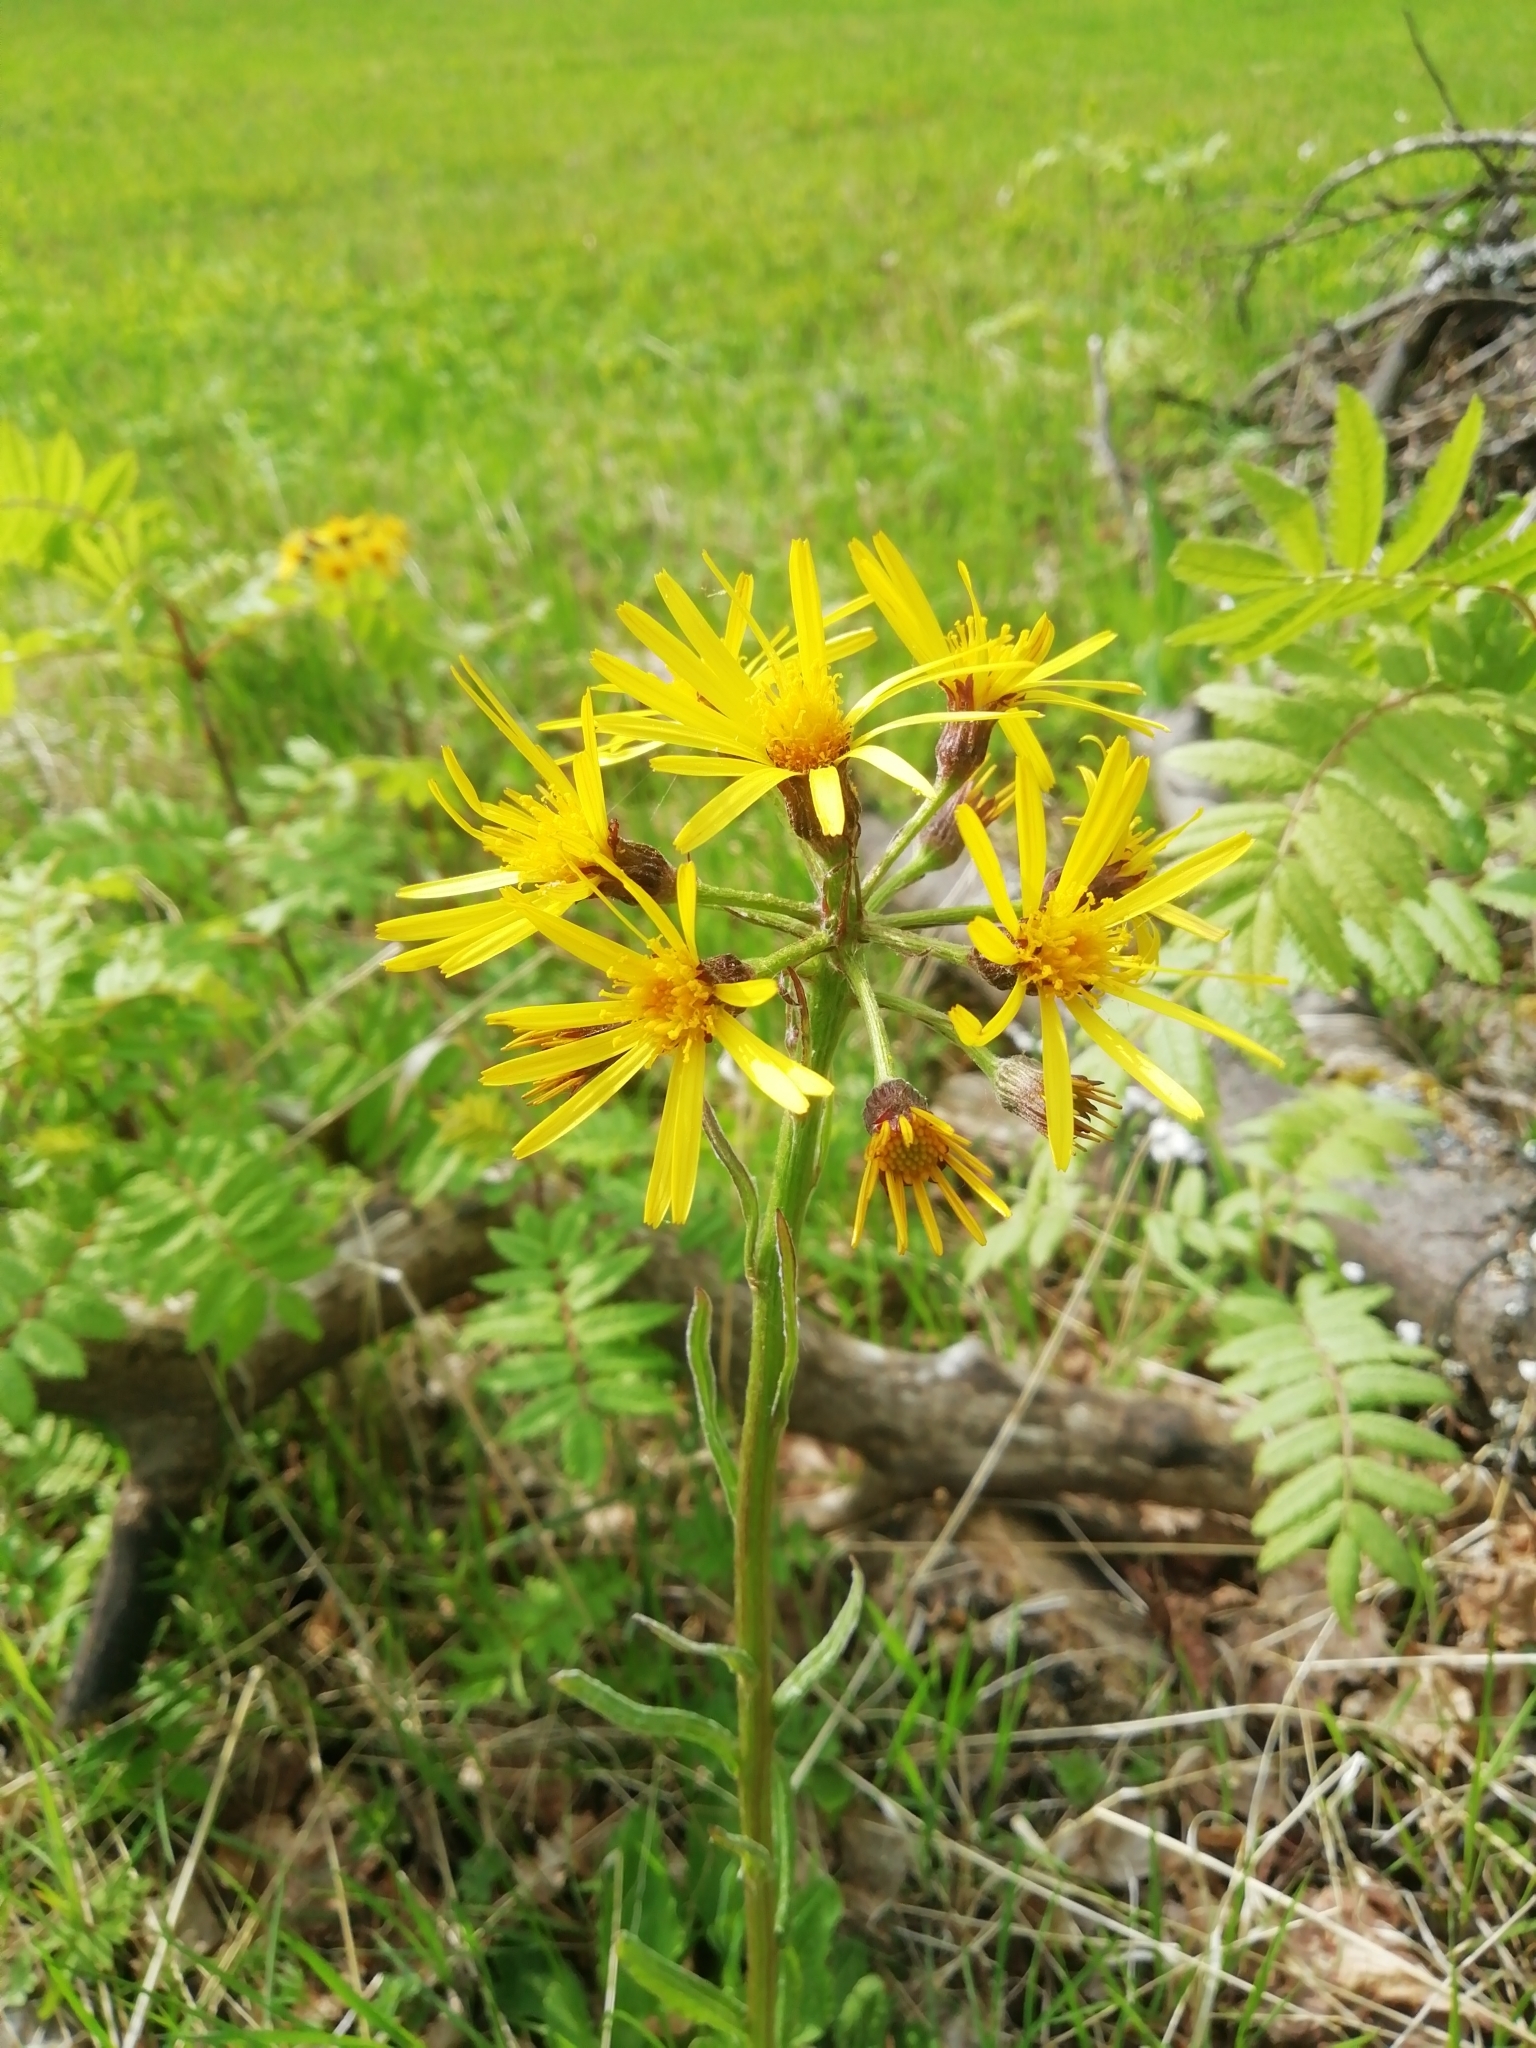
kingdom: Plantae
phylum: Tracheophyta
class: Magnoliopsida
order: Asterales
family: Asteraceae
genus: Tephroseris
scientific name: Tephroseris crispa
